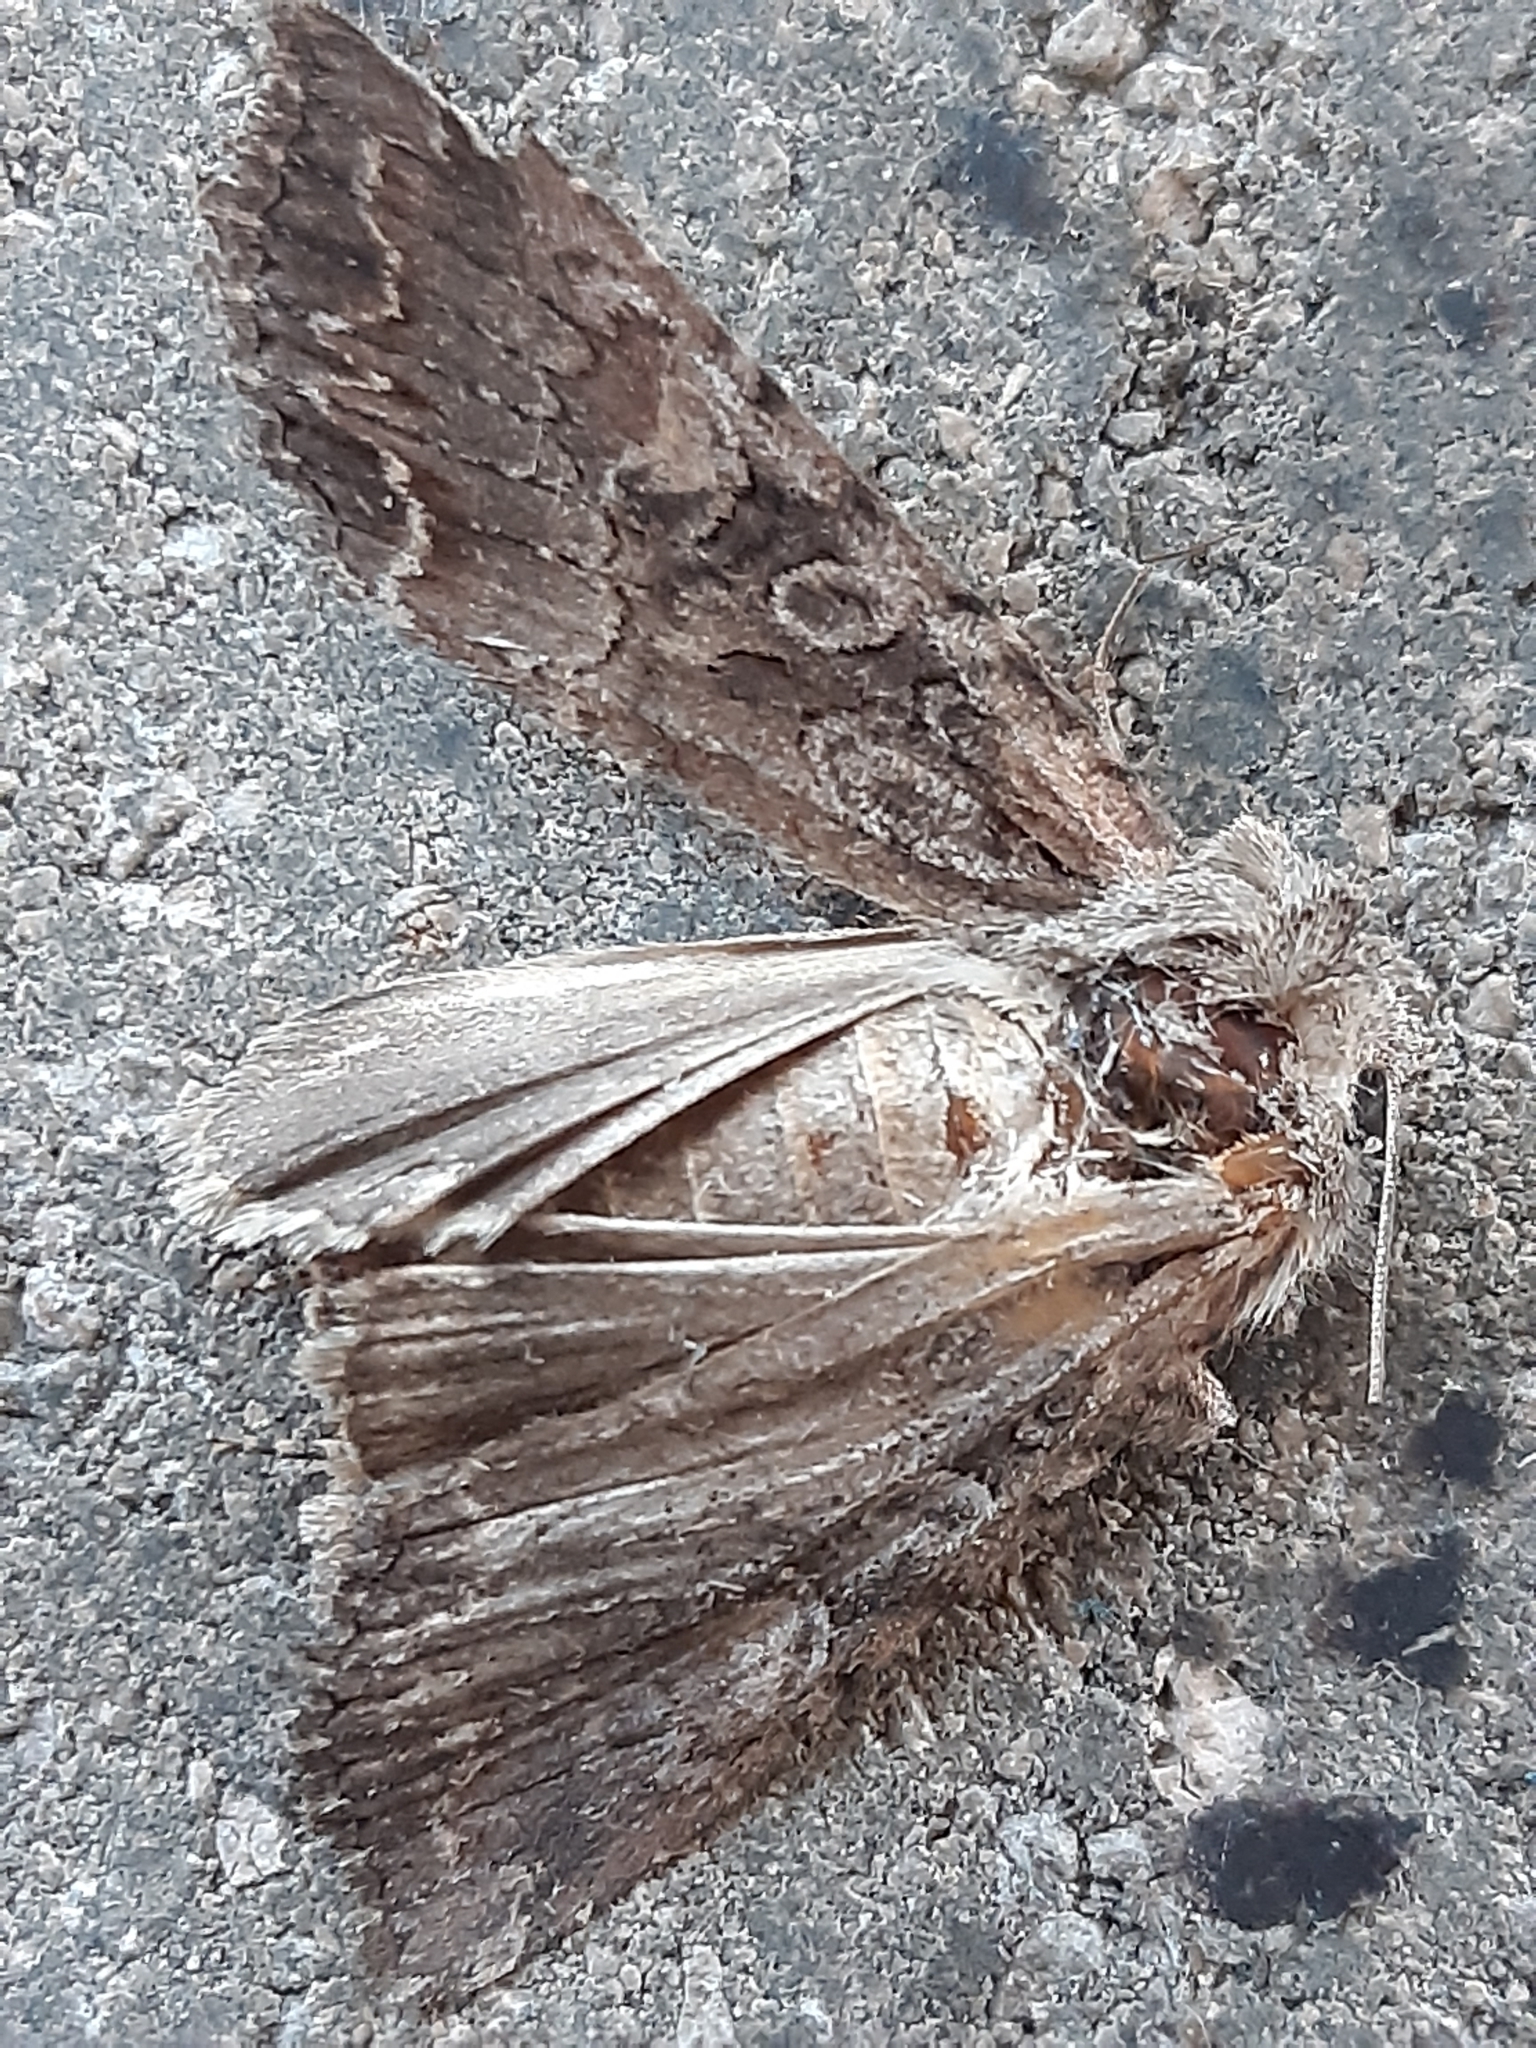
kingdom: Animalia
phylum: Arthropoda
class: Insecta
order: Lepidoptera
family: Noctuidae
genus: Apamea
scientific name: Apamea monoglypha
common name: Dark arches
